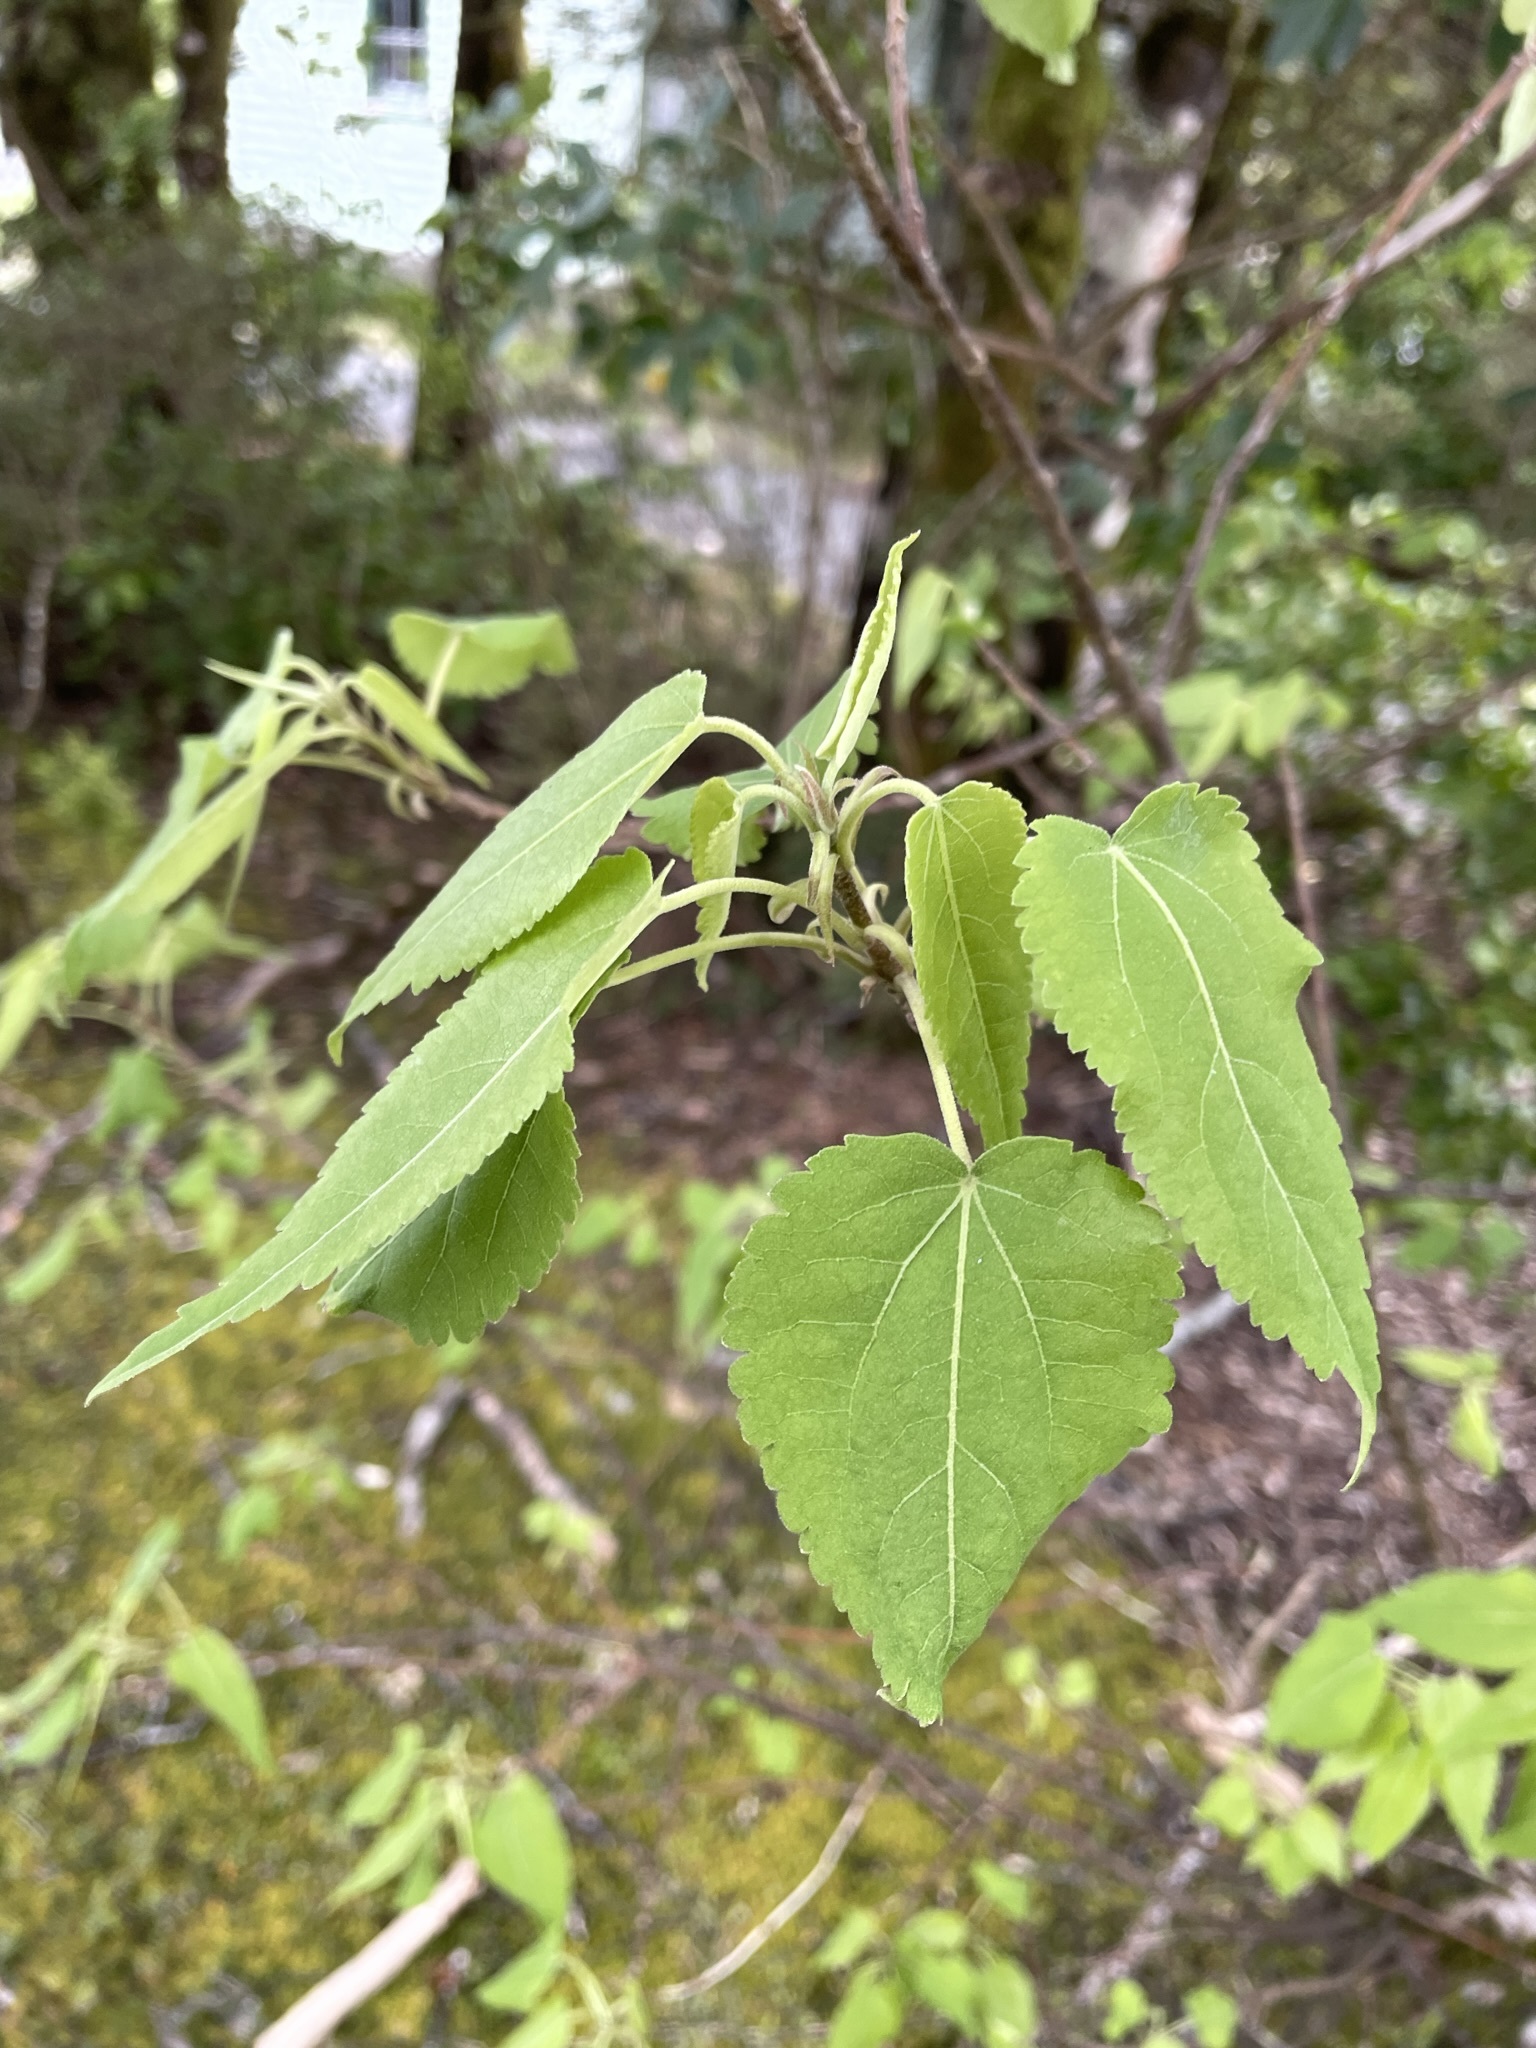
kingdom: Plantae
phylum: Tracheophyta
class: Magnoliopsida
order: Malvales
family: Malvaceae
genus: Hoheria
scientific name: Hoheria glabrata
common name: Mountain-ribbon
